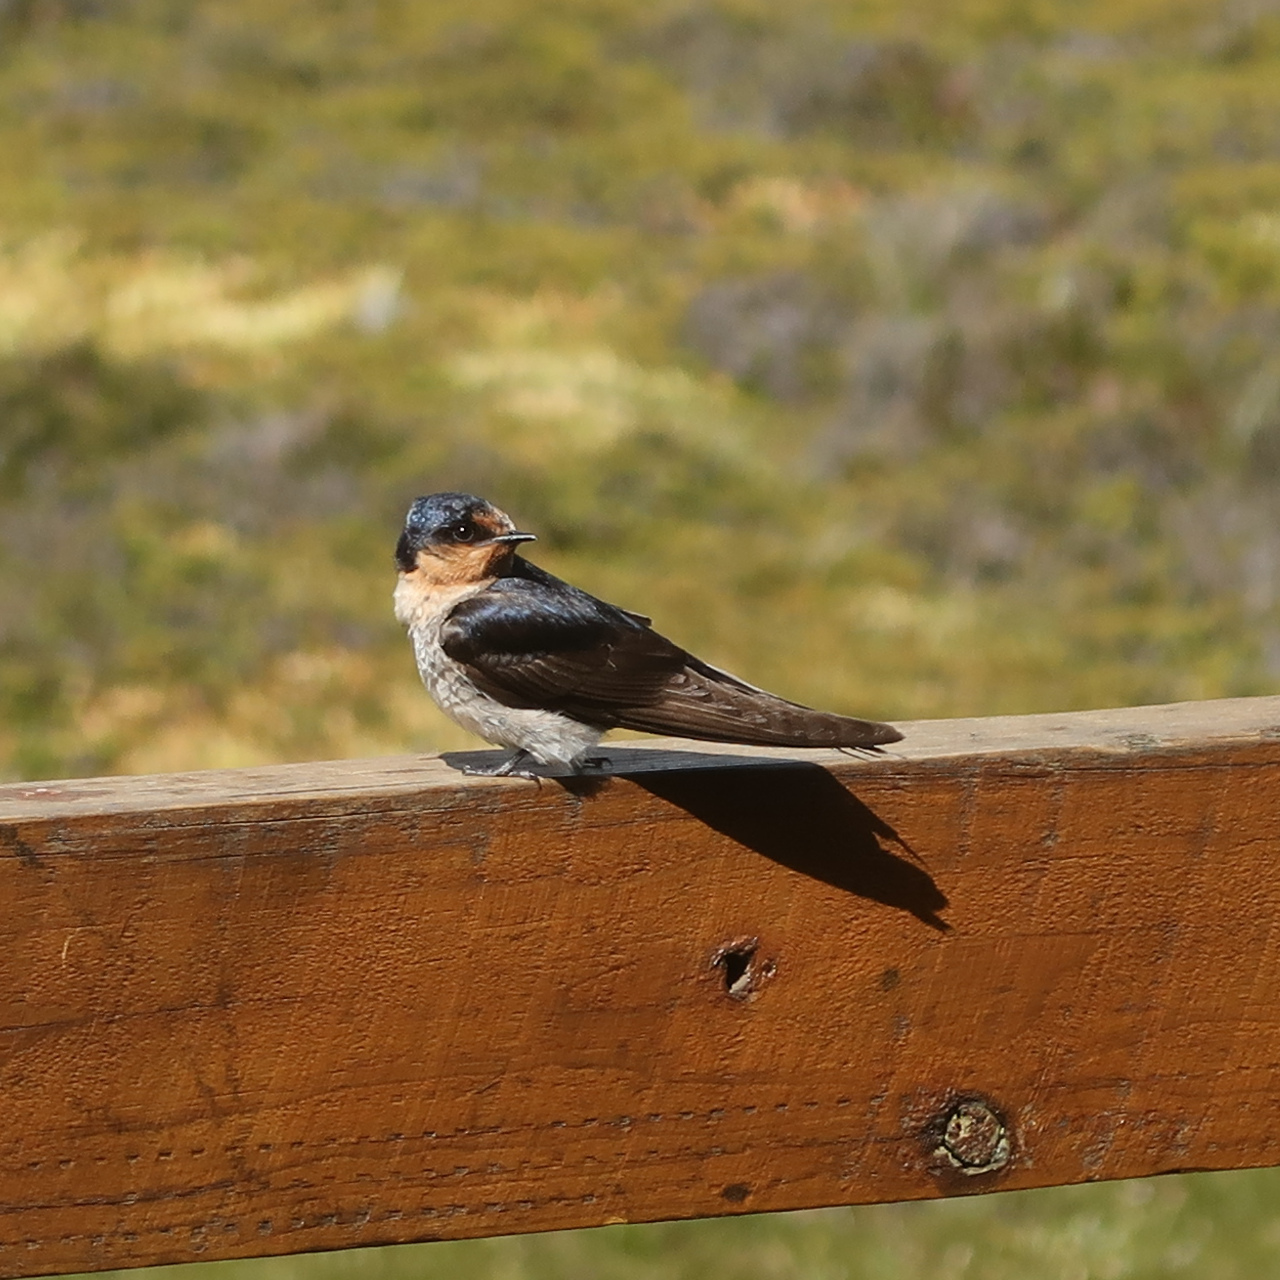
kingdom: Animalia
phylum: Chordata
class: Aves
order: Passeriformes
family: Hirundinidae
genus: Hirundo
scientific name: Hirundo neoxena
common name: Welcome swallow
